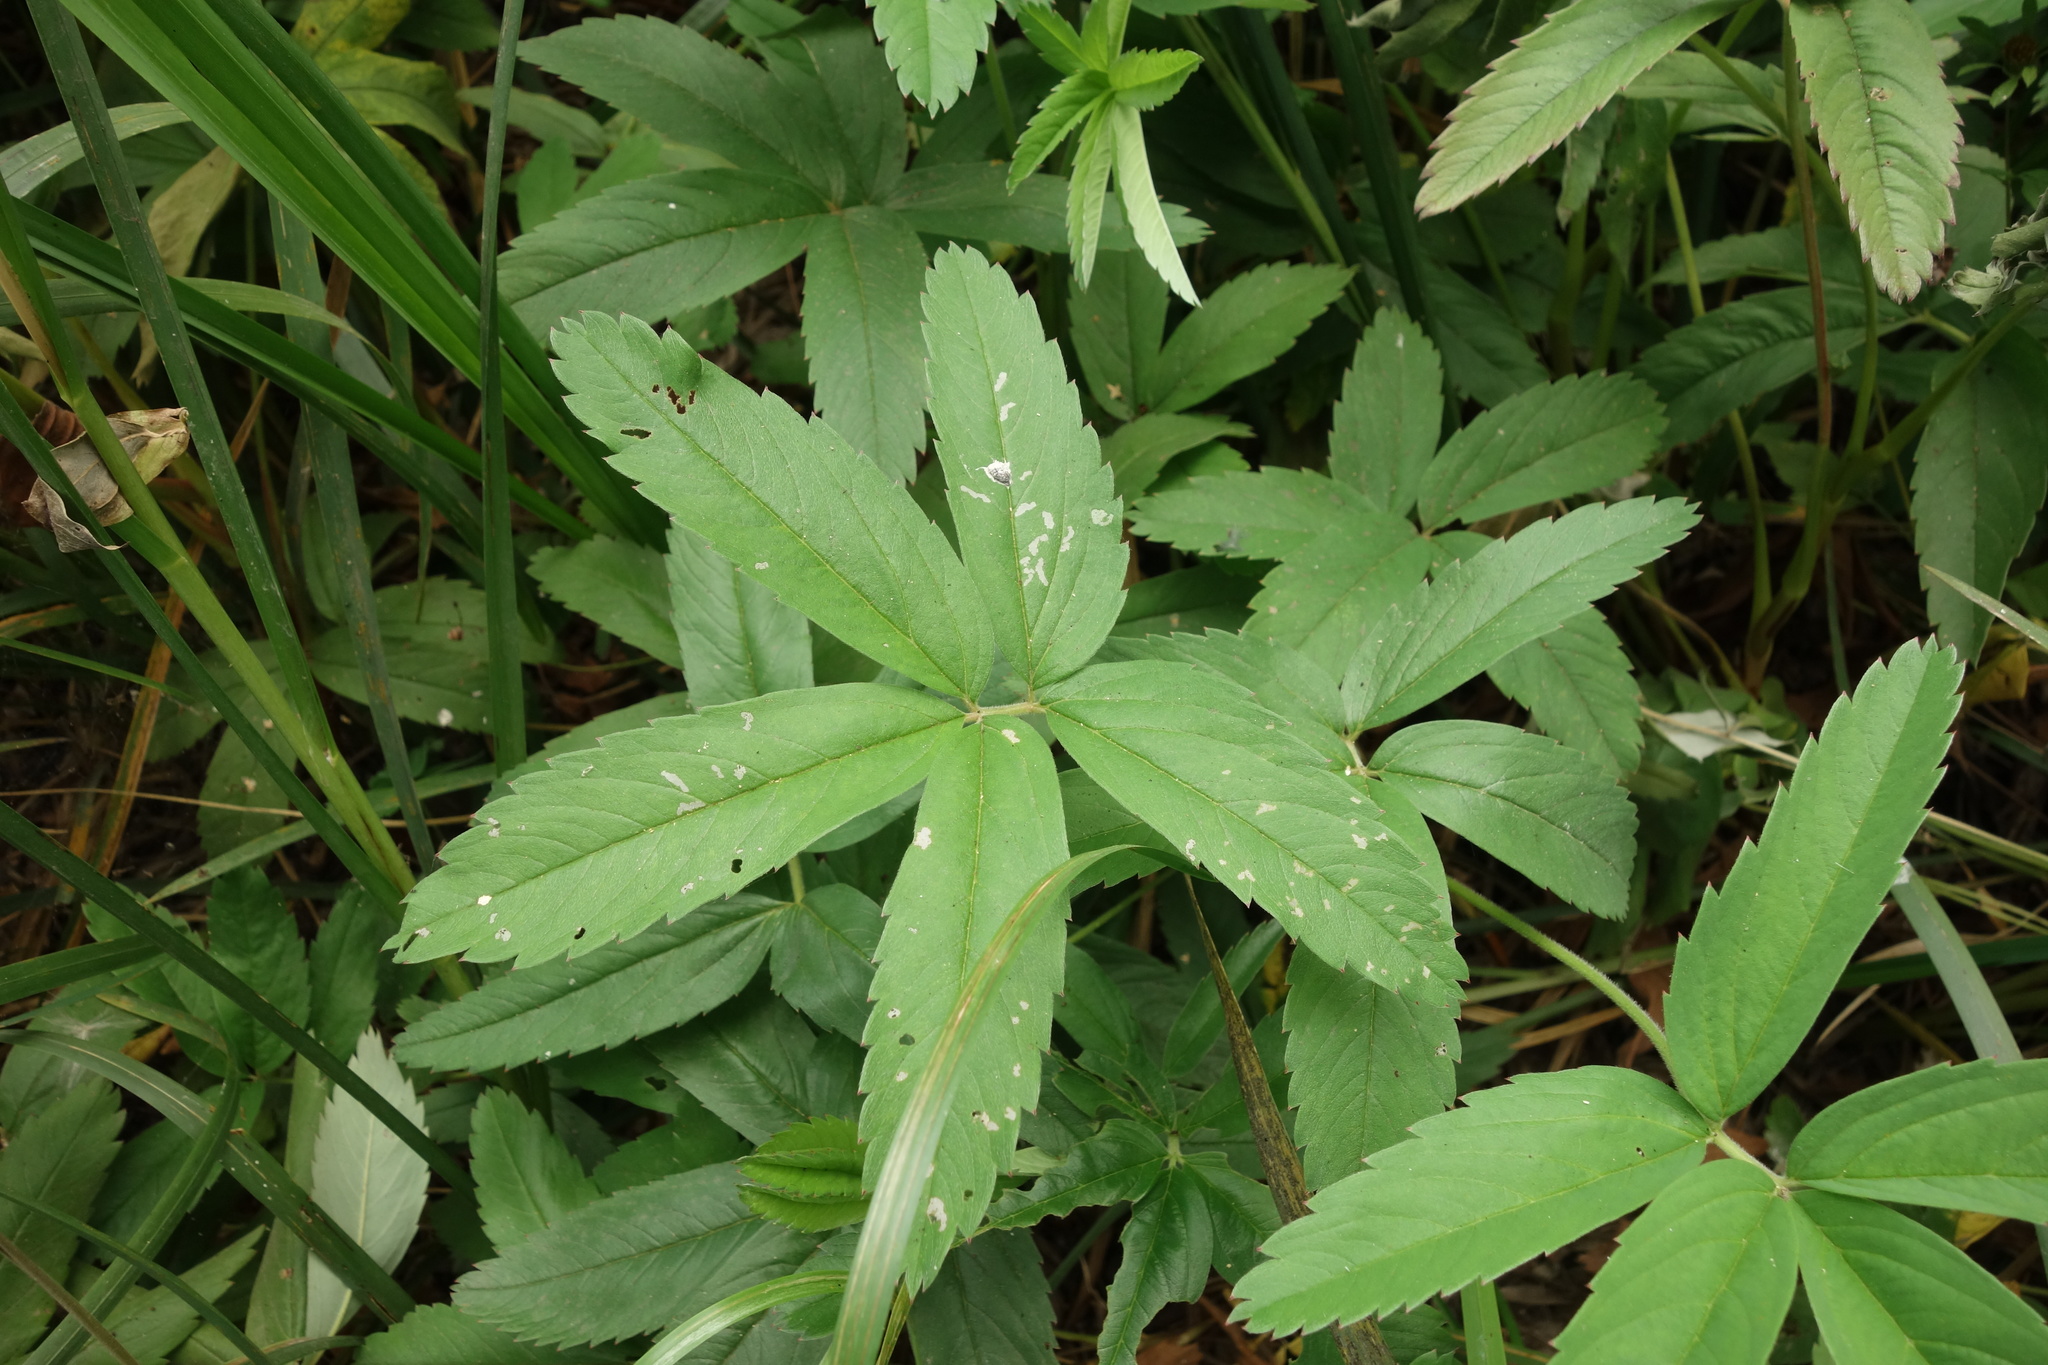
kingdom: Plantae
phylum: Tracheophyta
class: Magnoliopsida
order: Rosales
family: Rosaceae
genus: Comarum
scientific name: Comarum palustre
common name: Marsh cinquefoil
